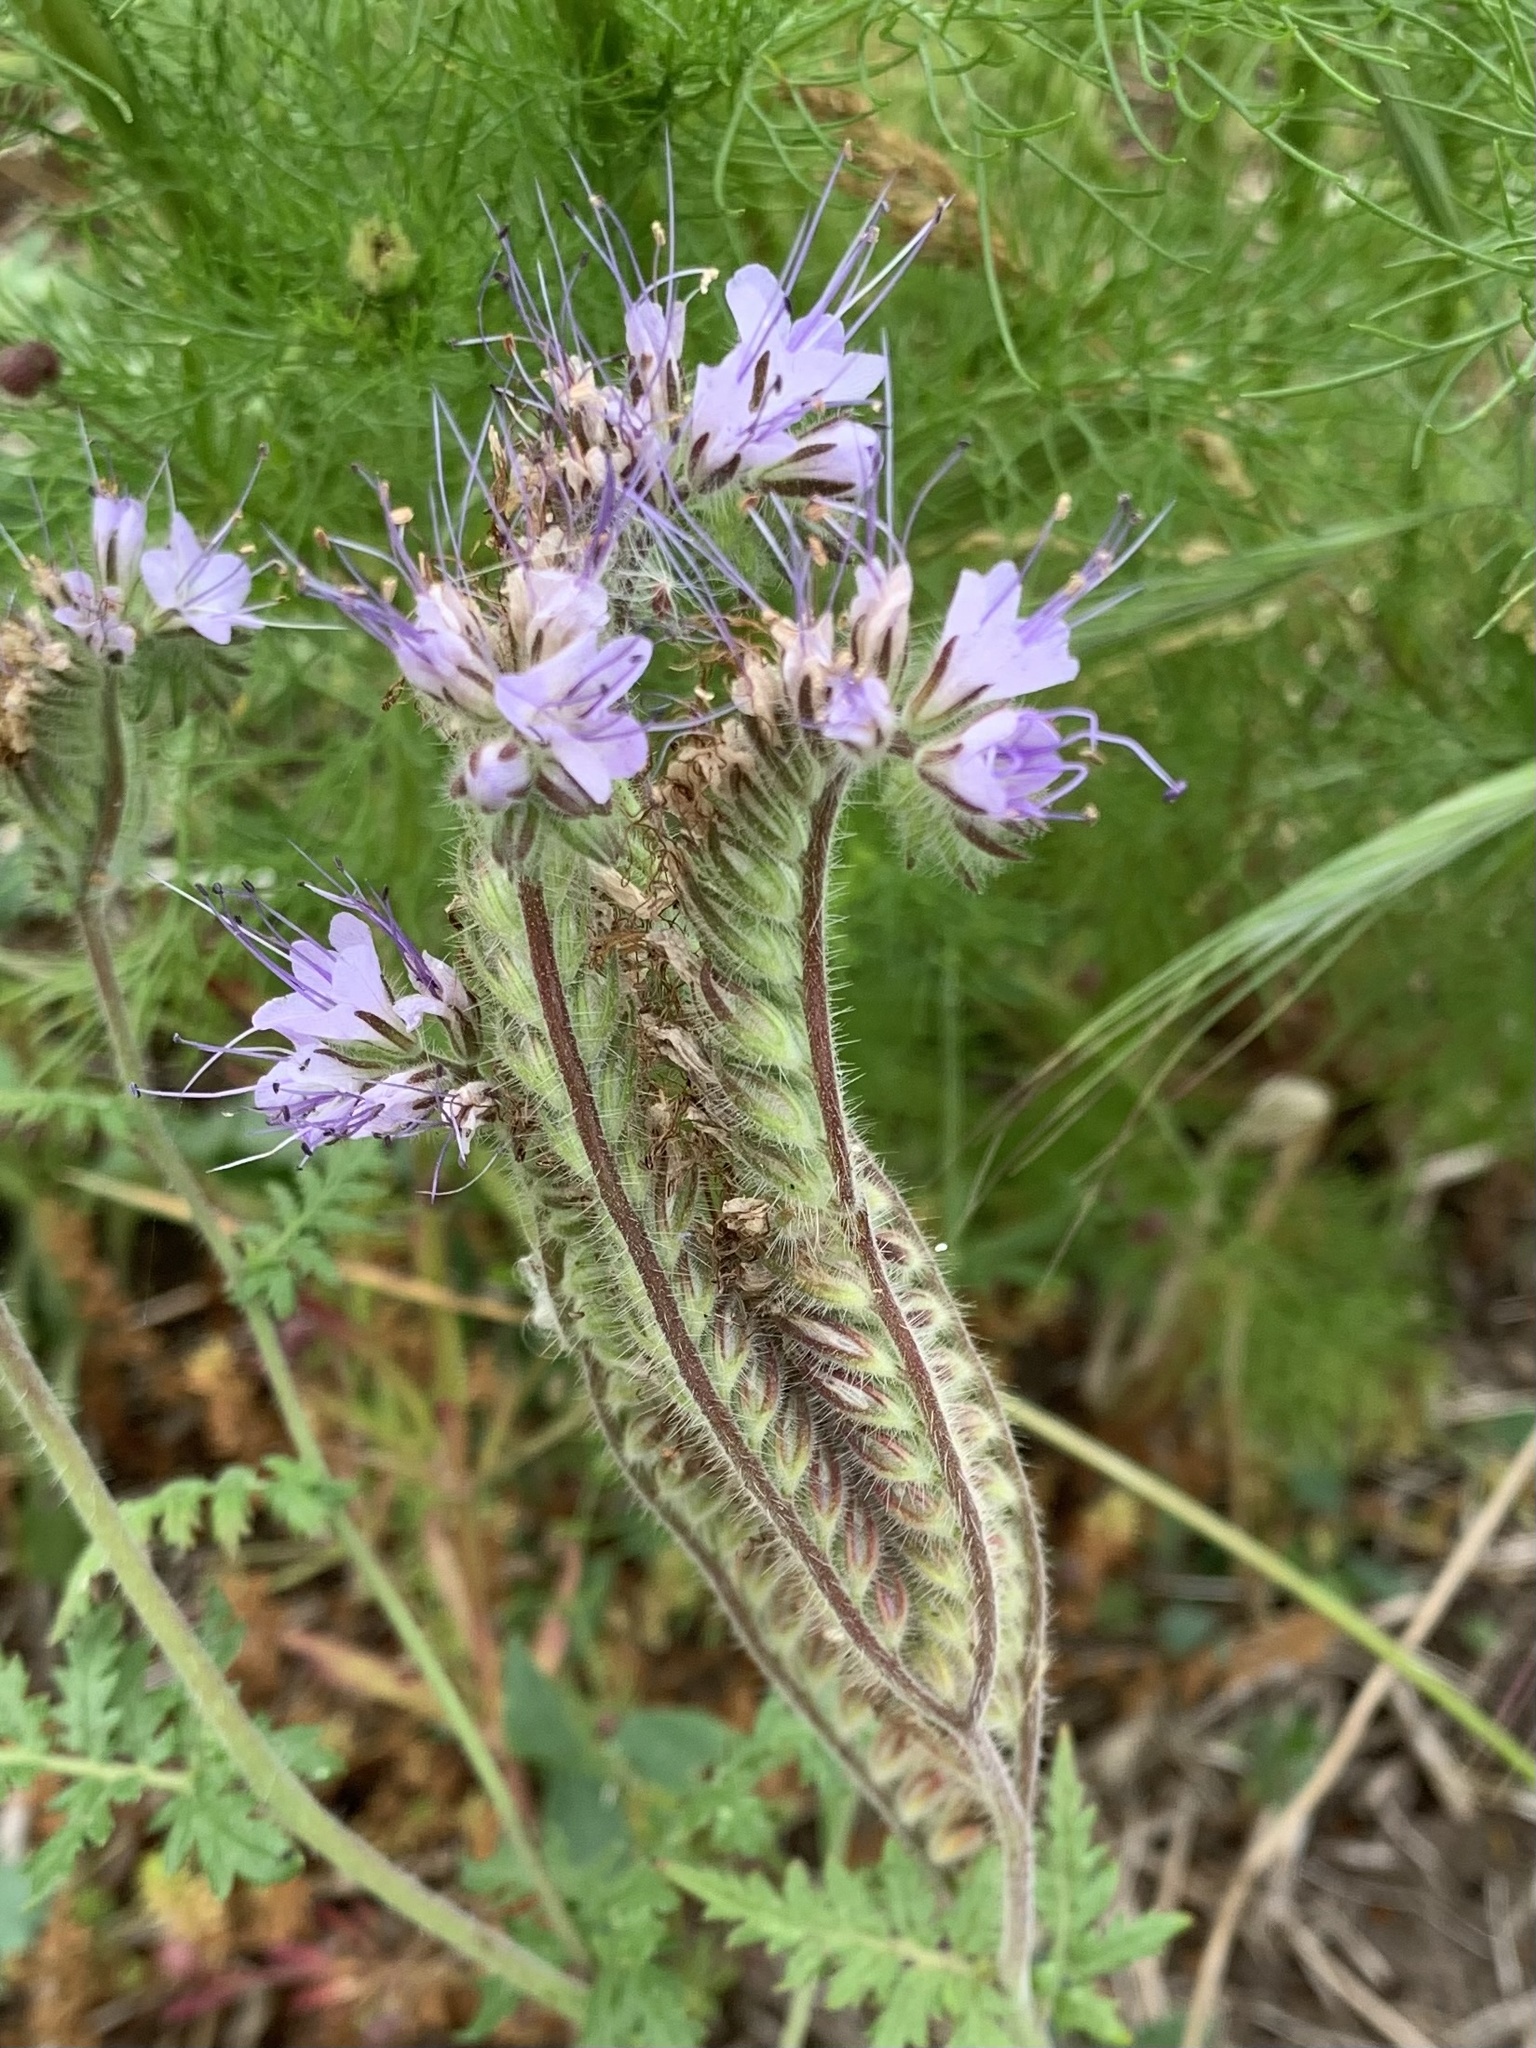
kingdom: Plantae
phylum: Tracheophyta
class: Magnoliopsida
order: Boraginales
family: Hydrophyllaceae
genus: Phacelia
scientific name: Phacelia tanacetifolia
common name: Phacelia
